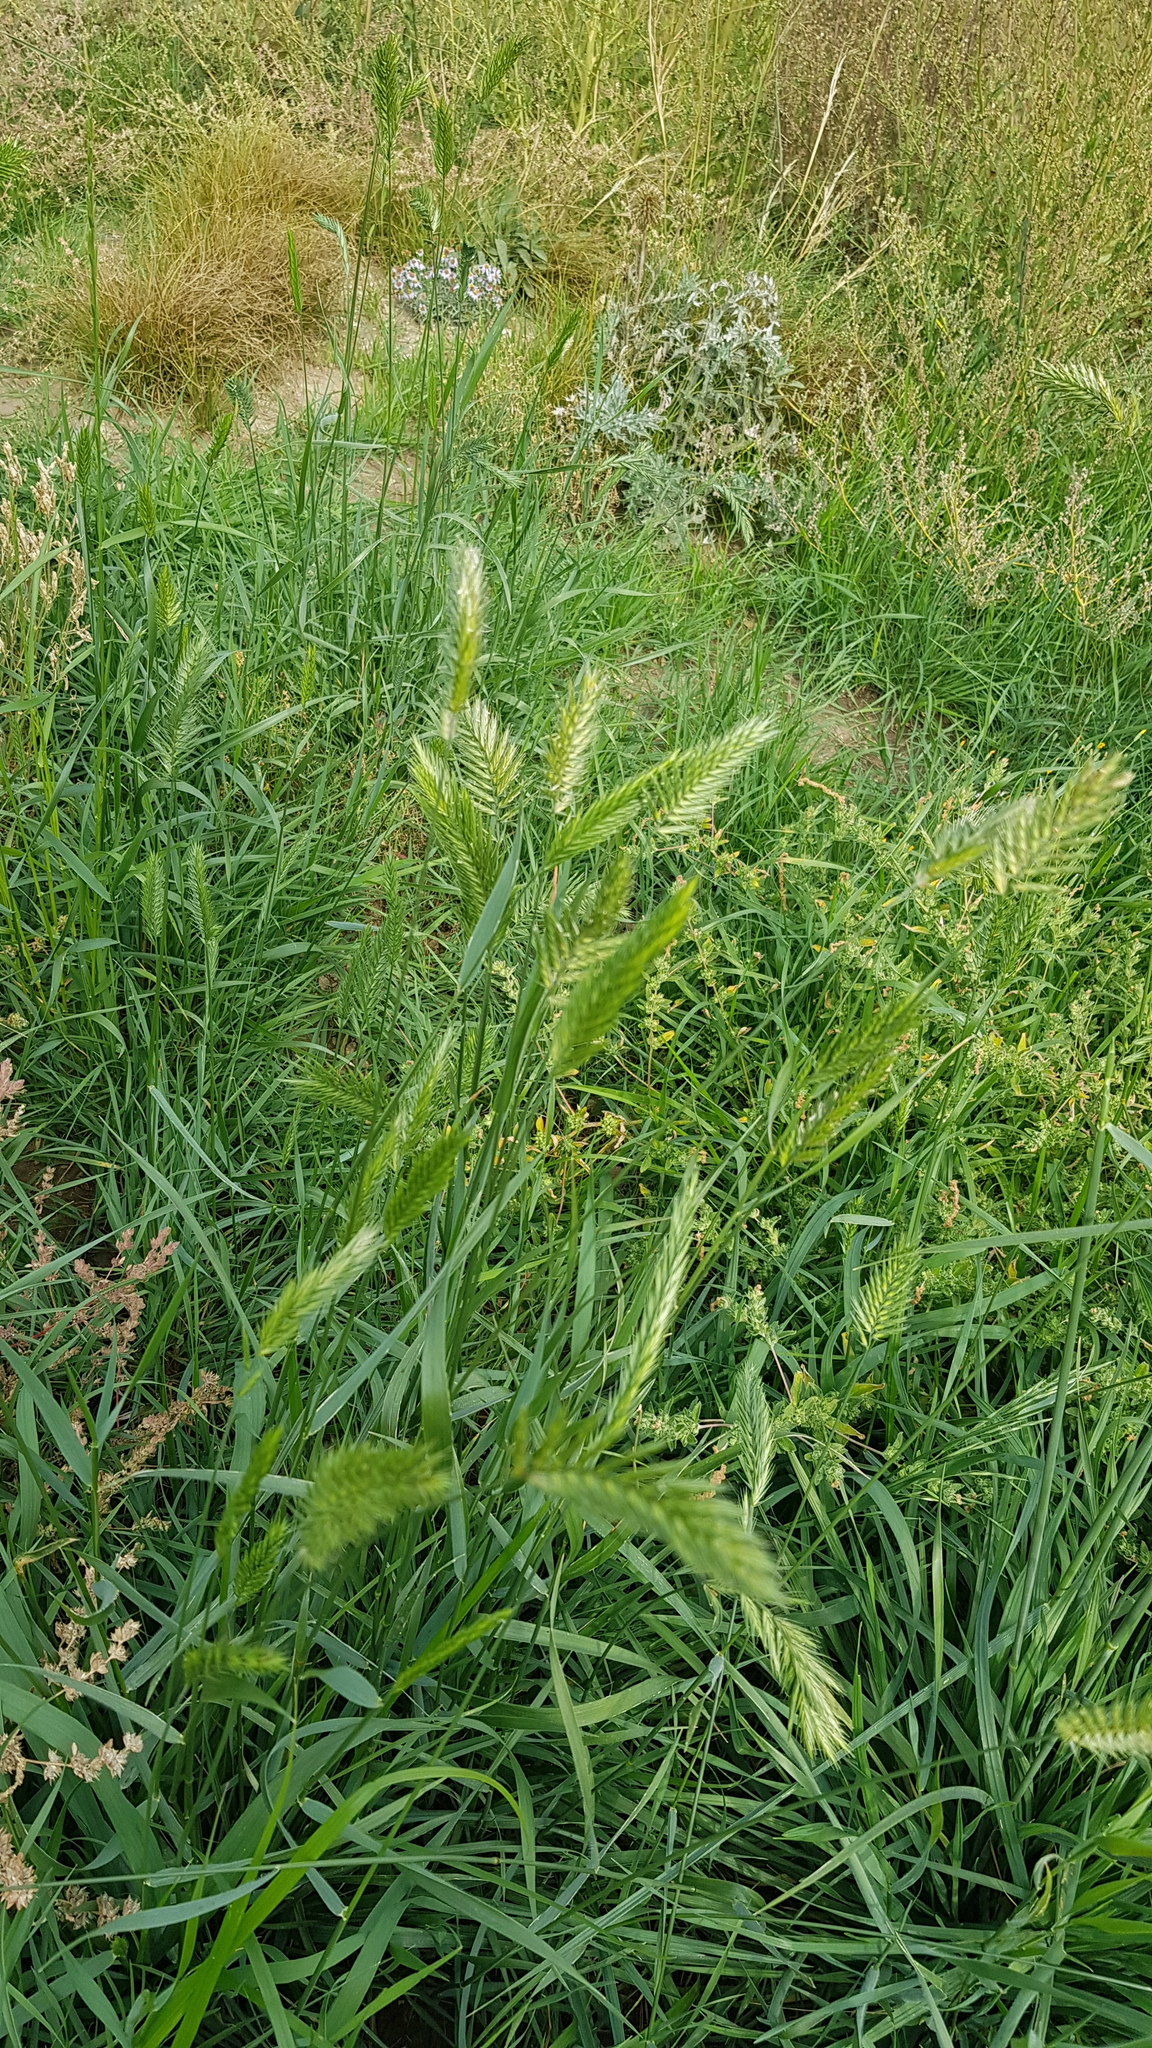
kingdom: Plantae
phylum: Tracheophyta
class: Liliopsida
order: Poales
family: Poaceae
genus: Agropyron
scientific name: Agropyron cristatum
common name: Crested wheatgrass
